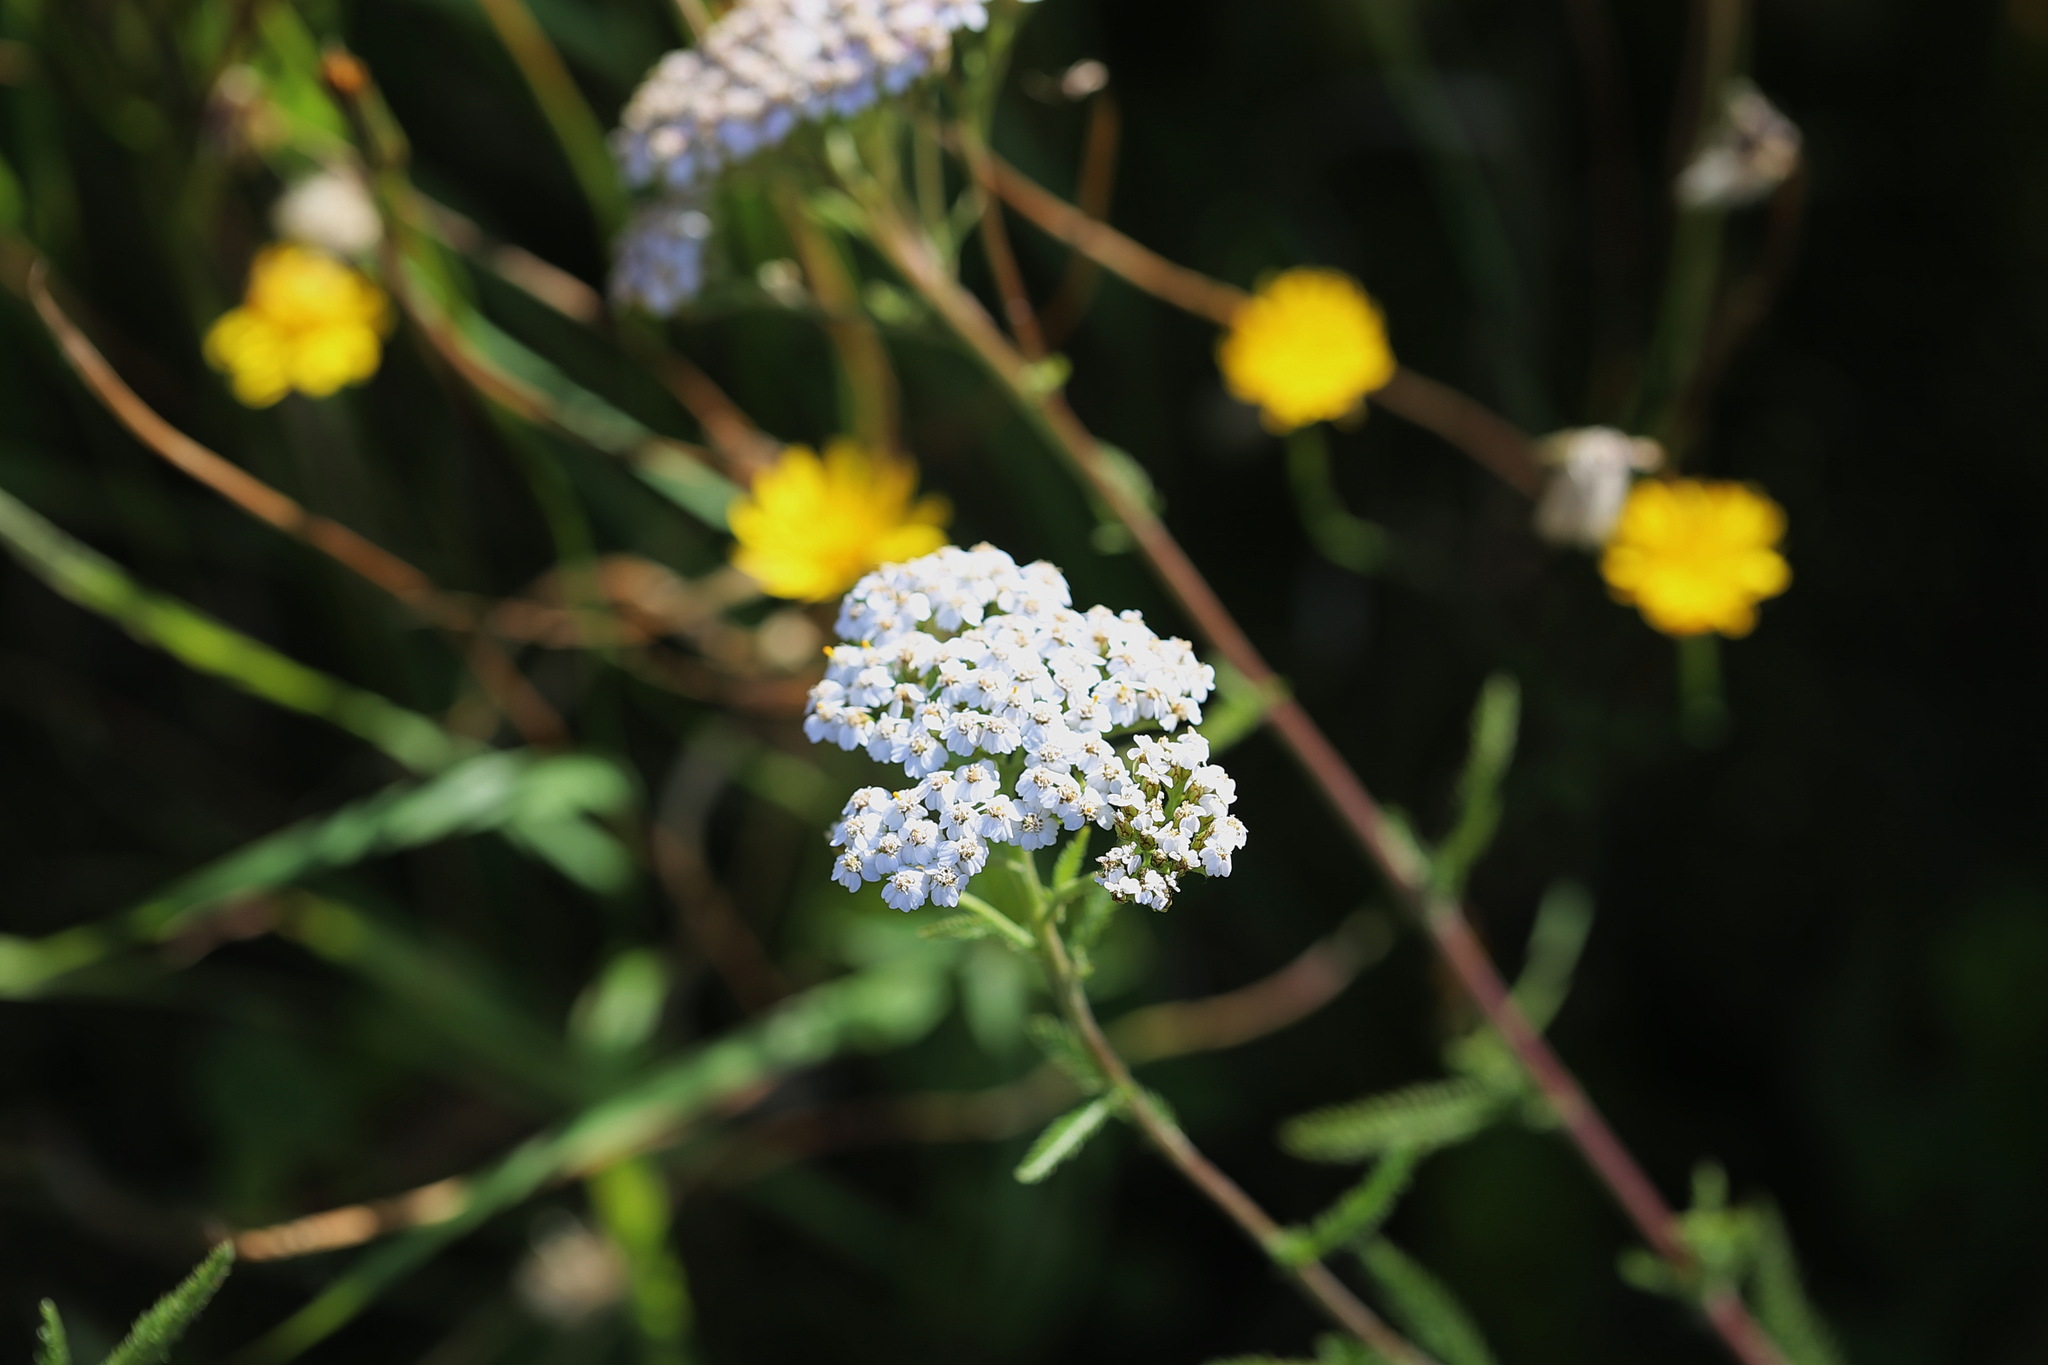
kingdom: Plantae
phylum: Tracheophyta
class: Magnoliopsida
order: Asterales
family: Asteraceae
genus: Achillea
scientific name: Achillea millefolium
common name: Yarrow
